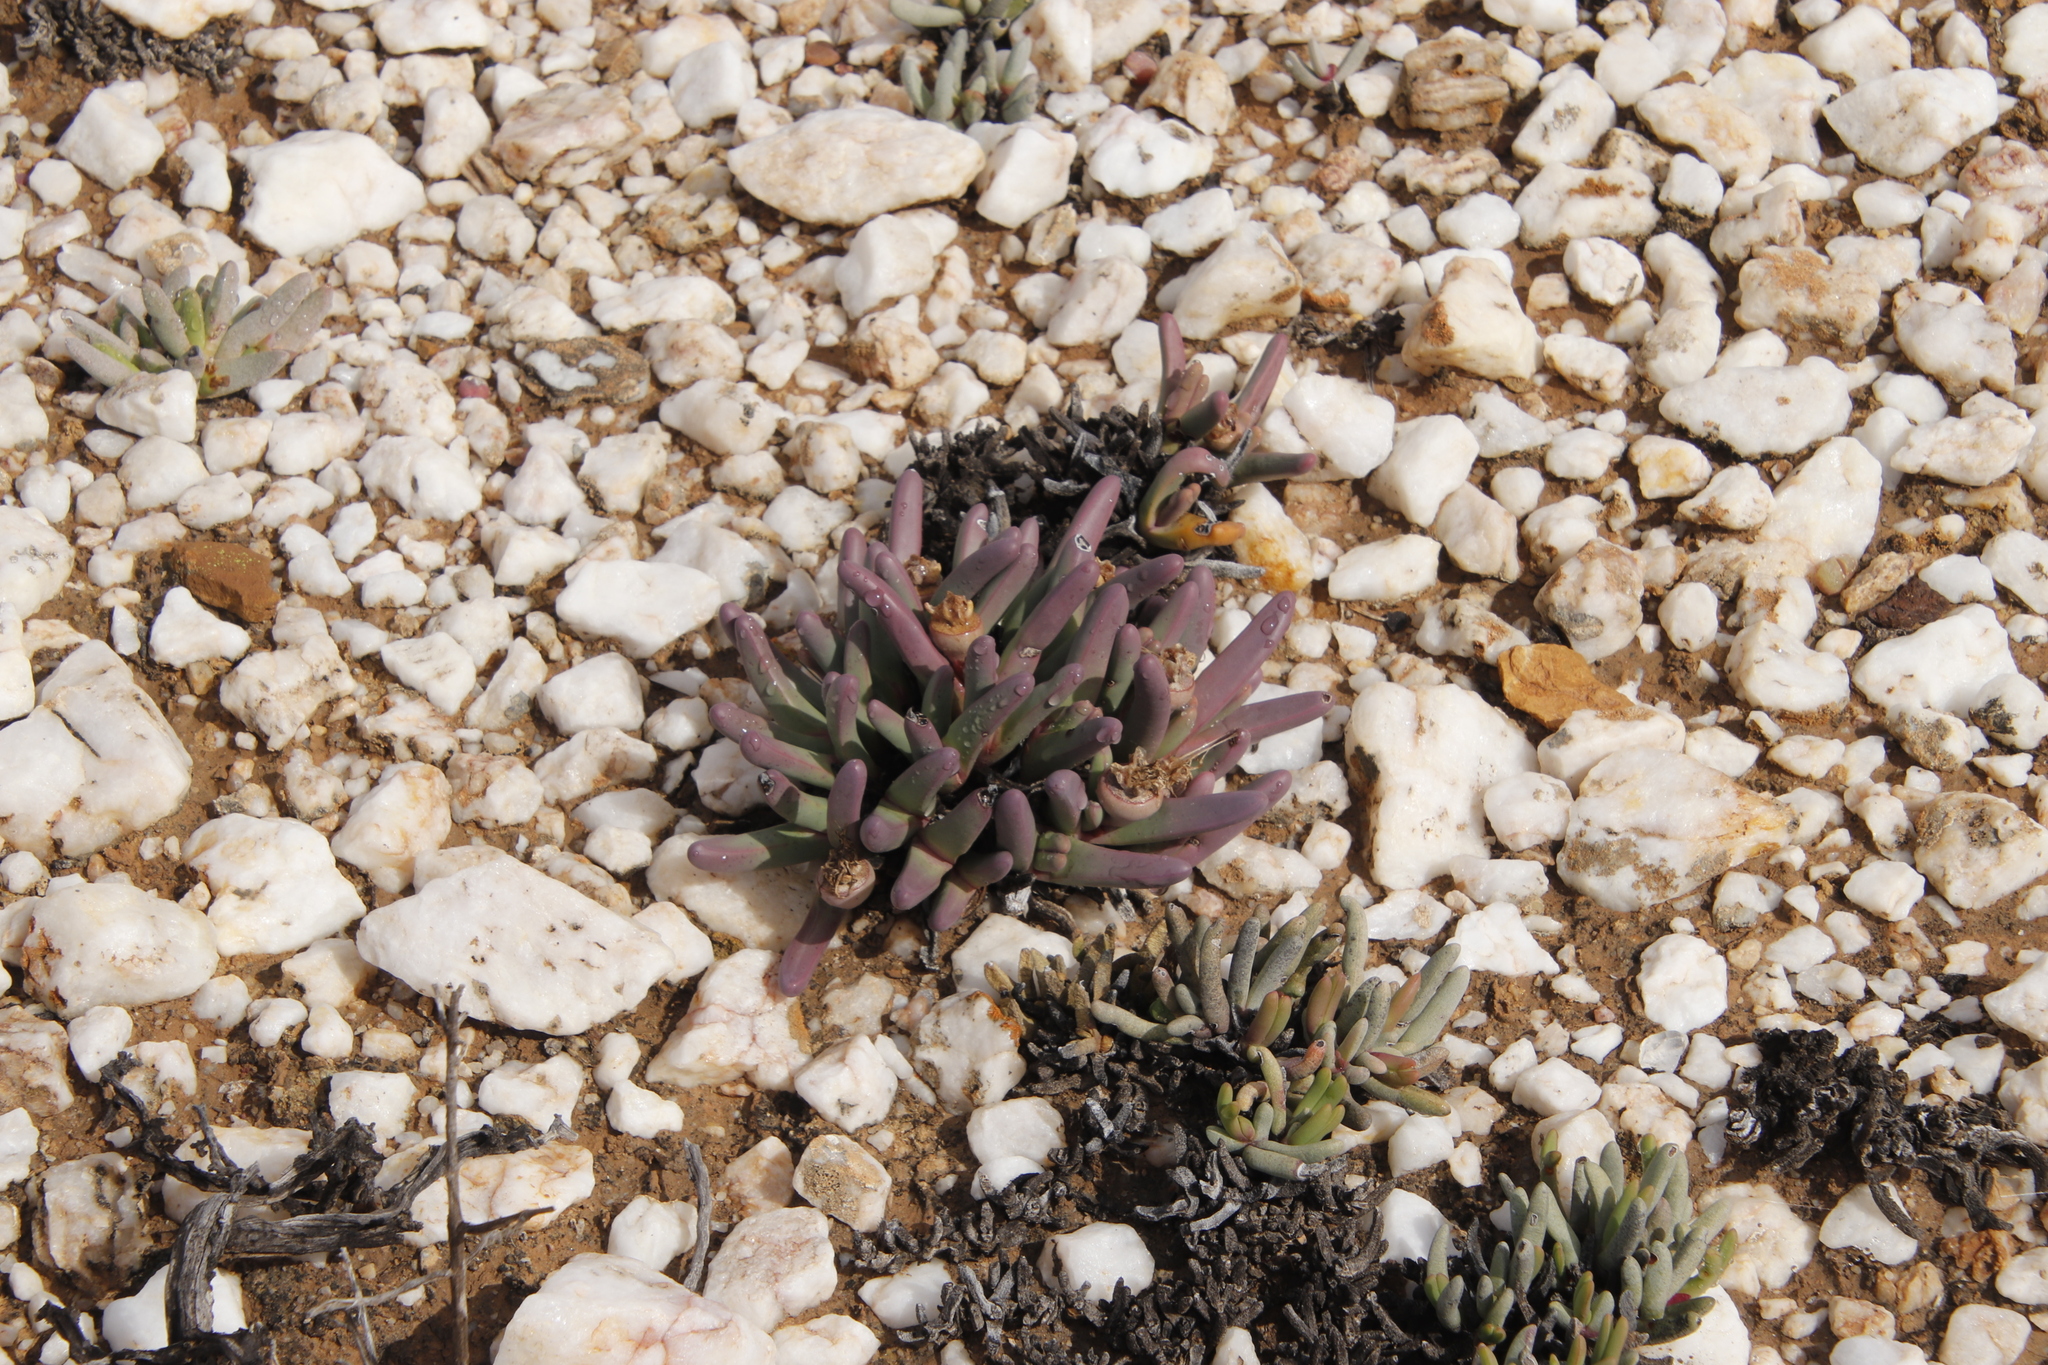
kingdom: Plantae
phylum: Tracheophyta
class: Magnoliopsida
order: Caryophyllales
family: Aizoaceae
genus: Argyroderma
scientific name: Argyroderma fissum
